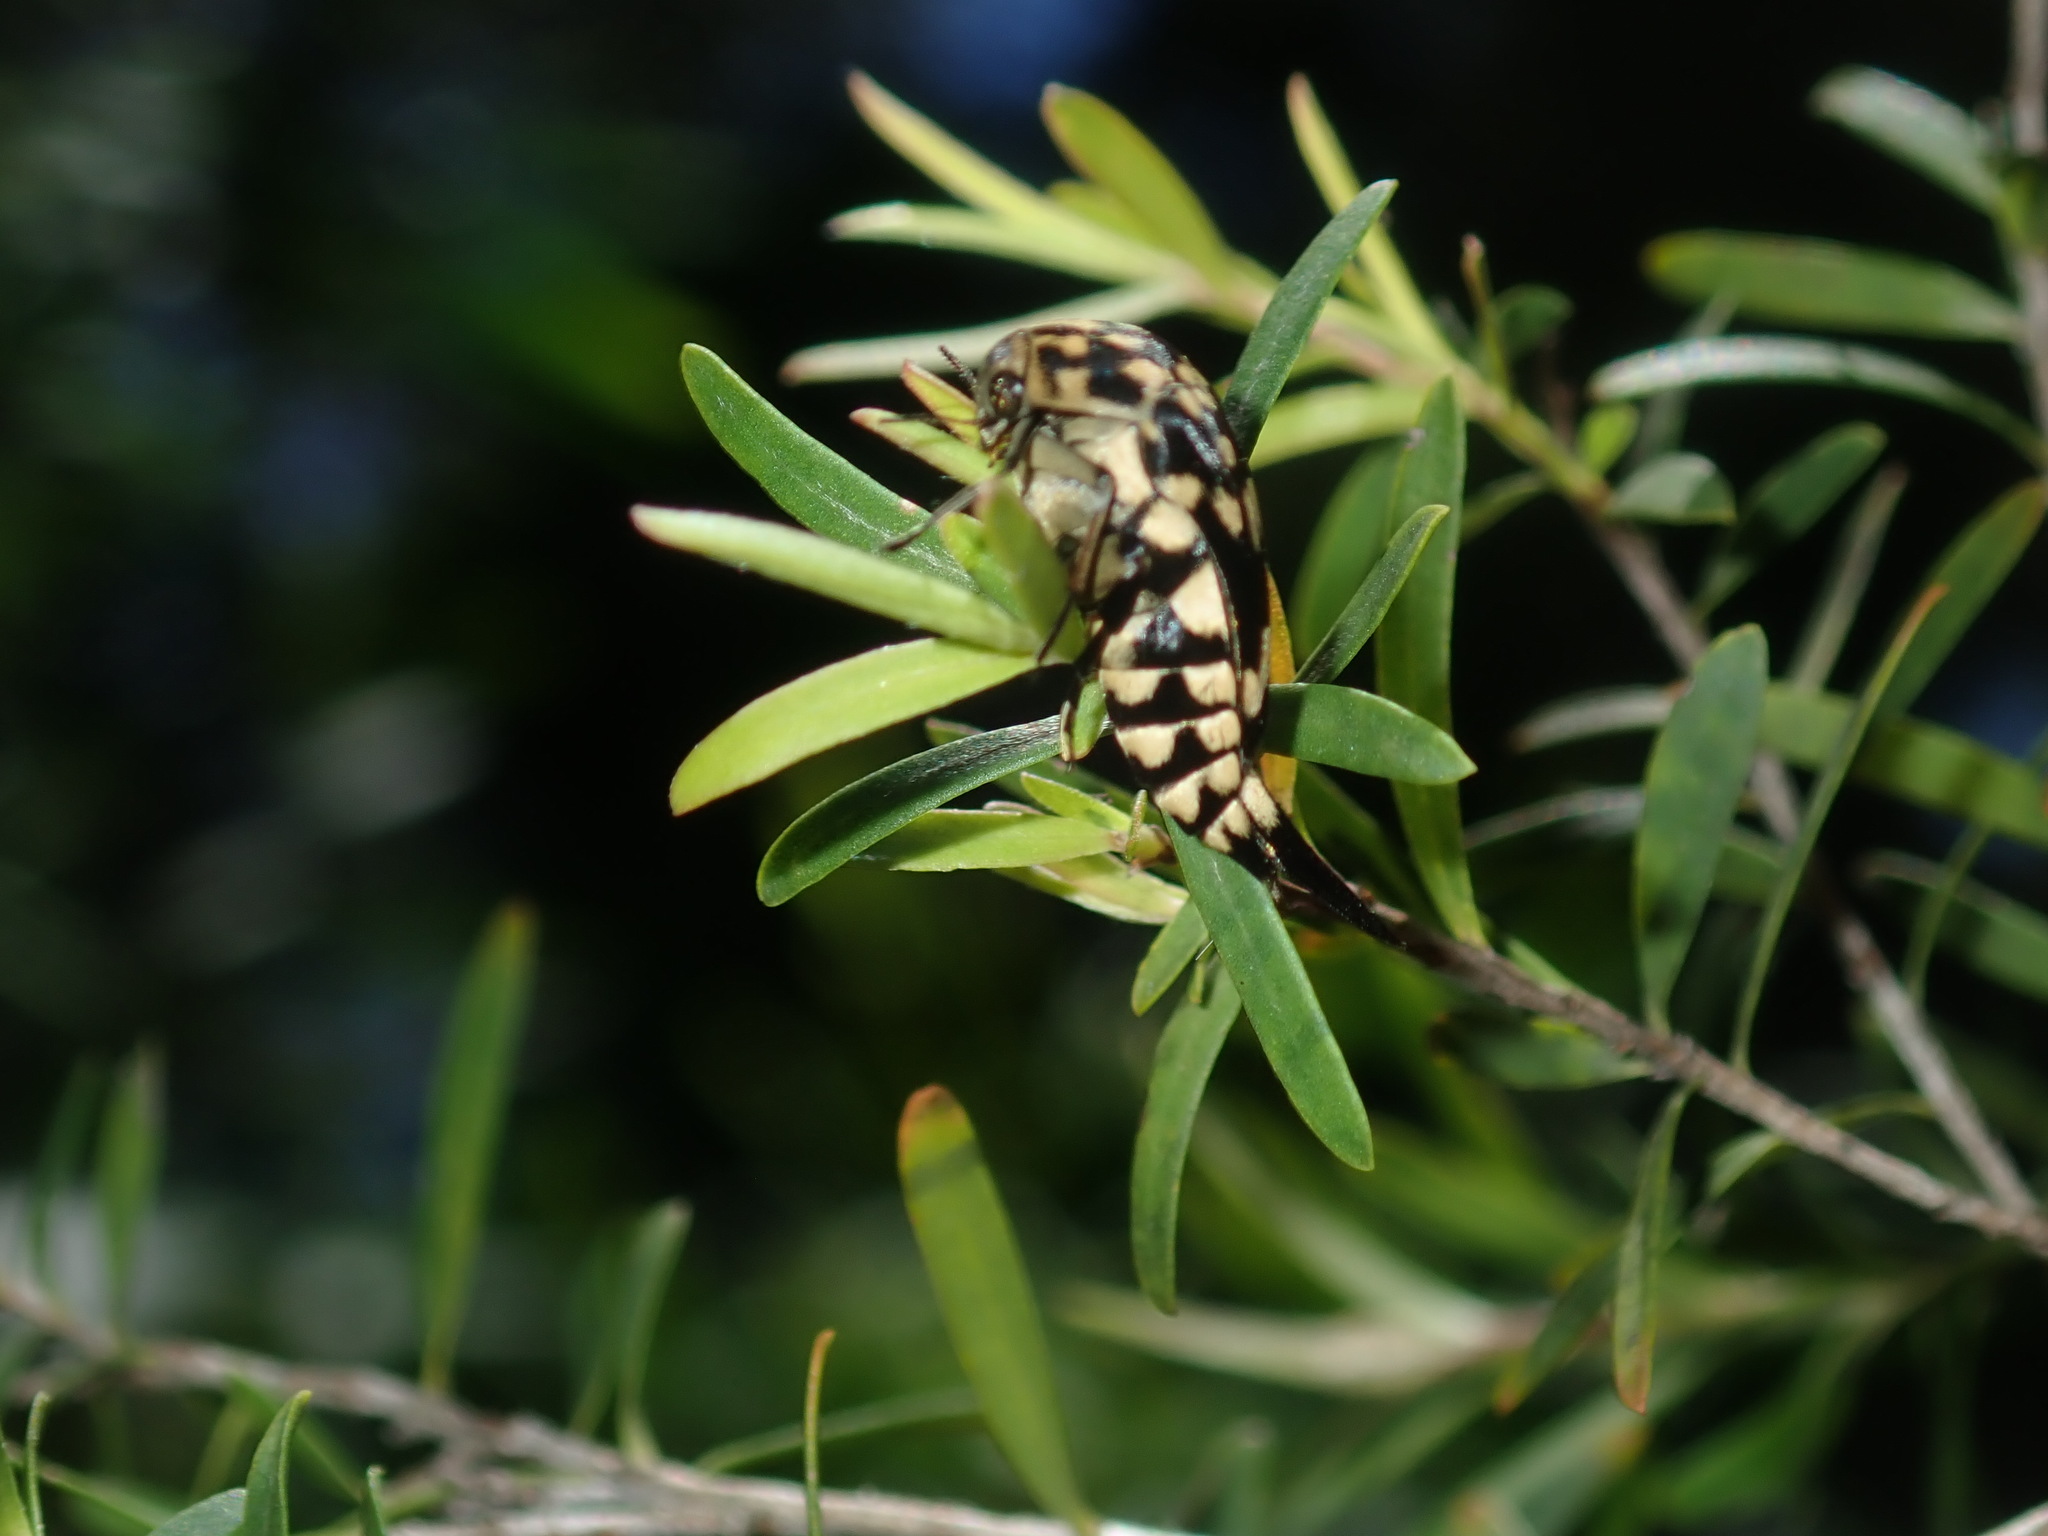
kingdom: Animalia
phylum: Arthropoda
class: Insecta
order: Coleoptera
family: Mordellidae
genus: Hoshihananomia
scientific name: Hoshihananomia
